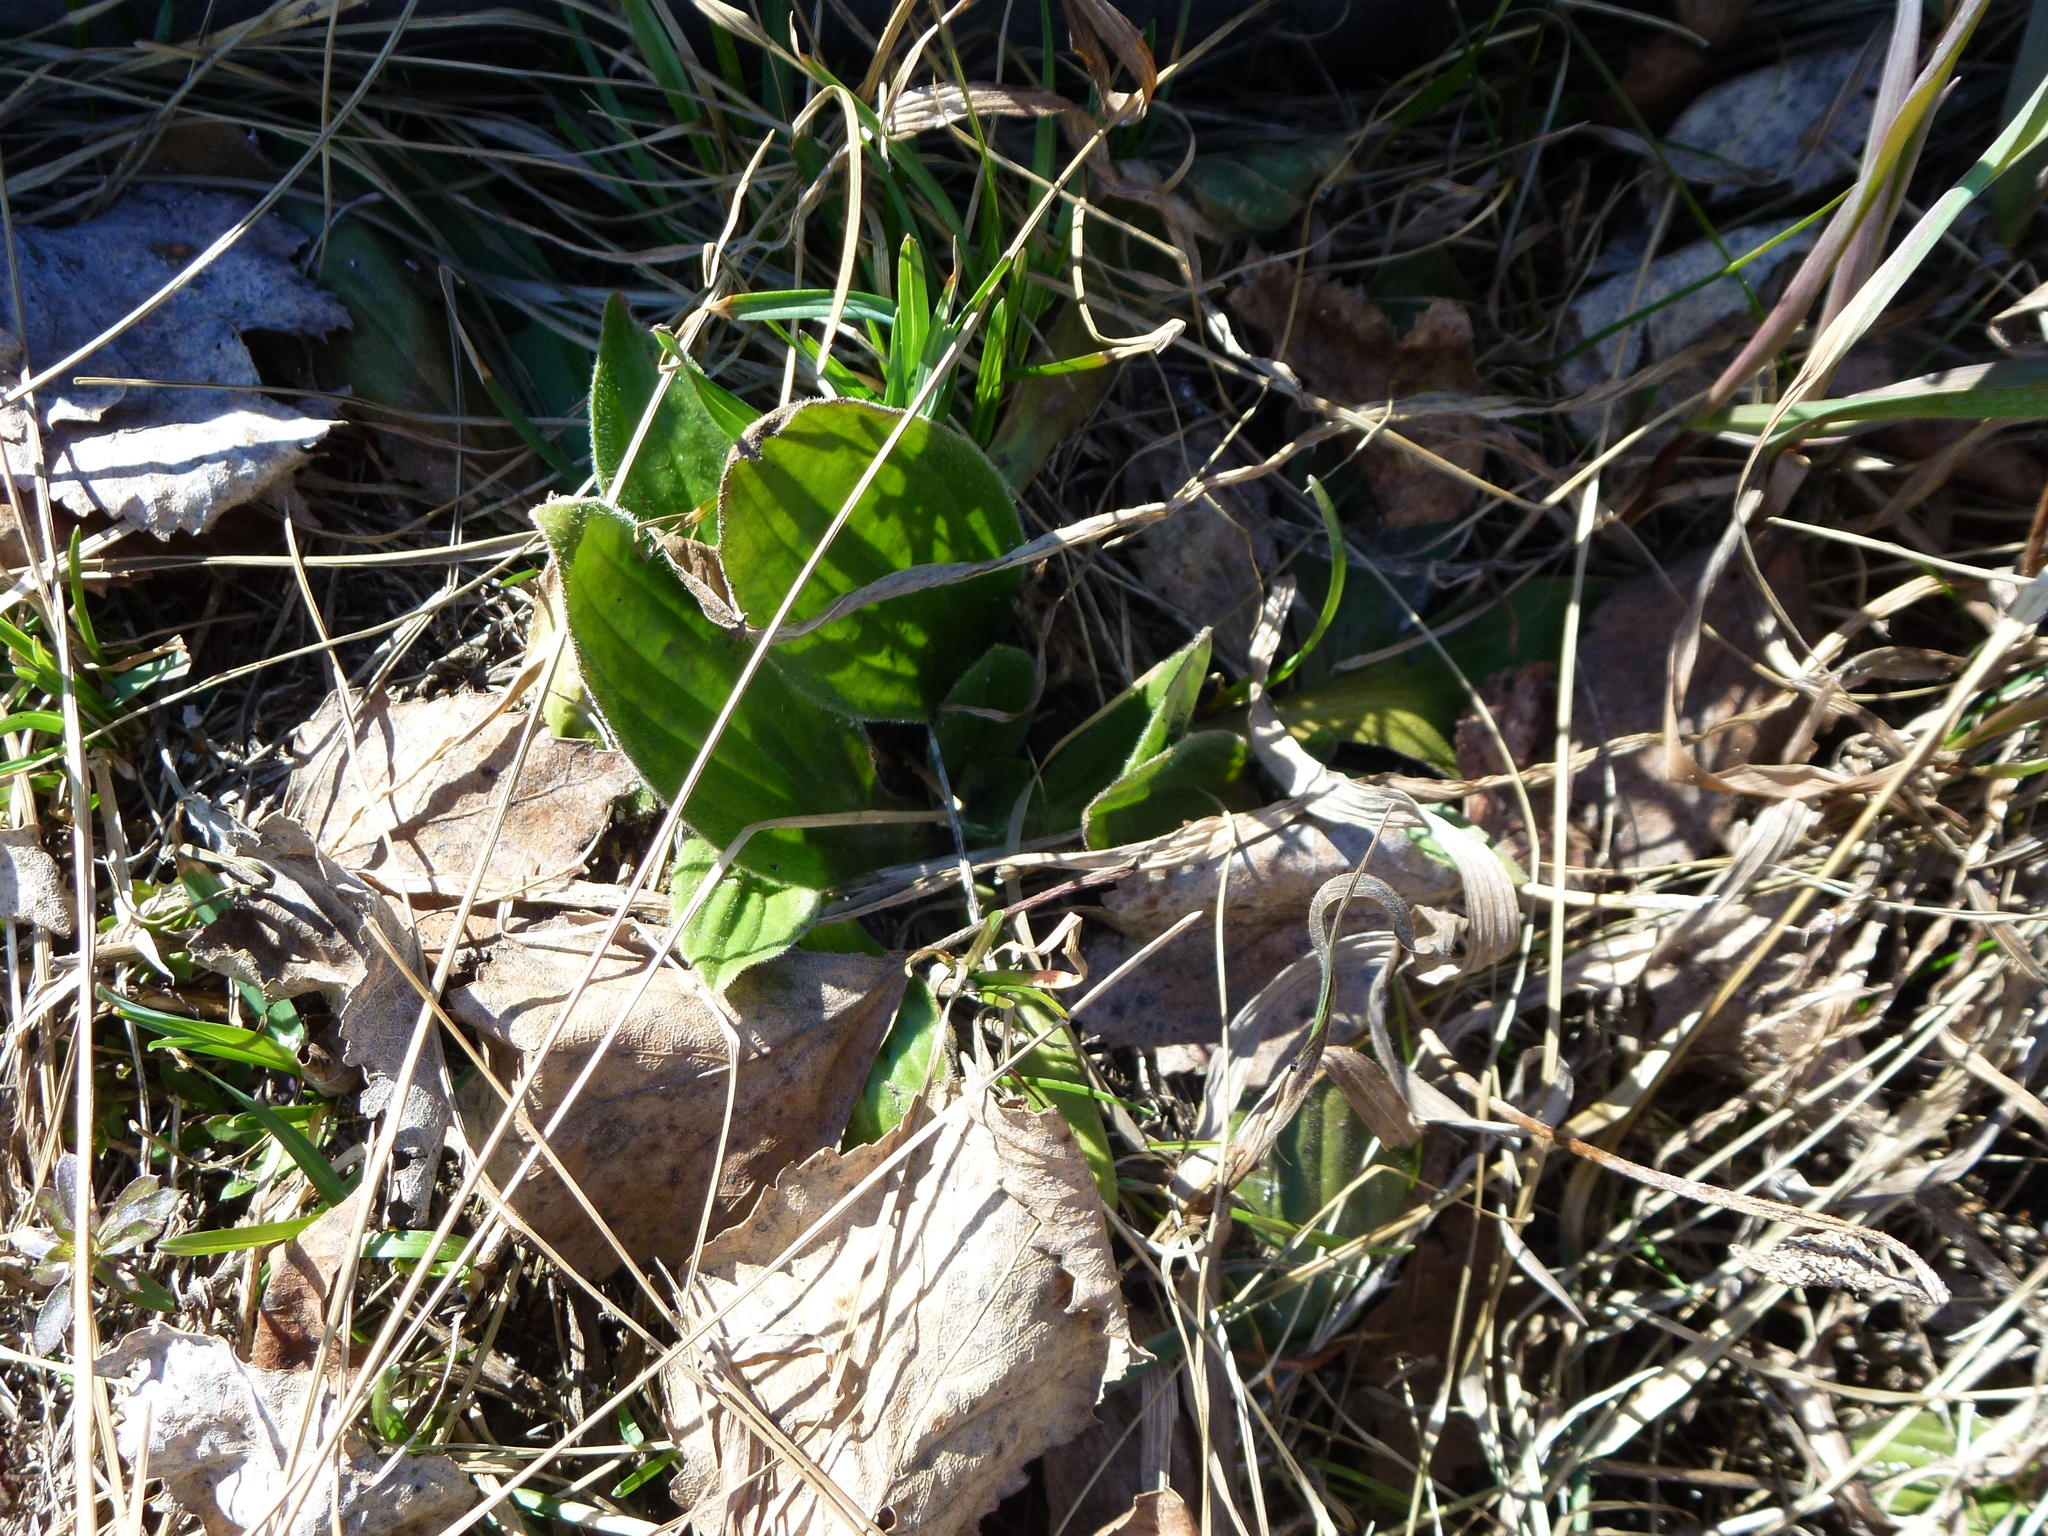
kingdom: Plantae
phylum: Tracheophyta
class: Magnoliopsida
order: Lamiales
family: Plantaginaceae
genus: Plantago
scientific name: Plantago media
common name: Hoary plantain
